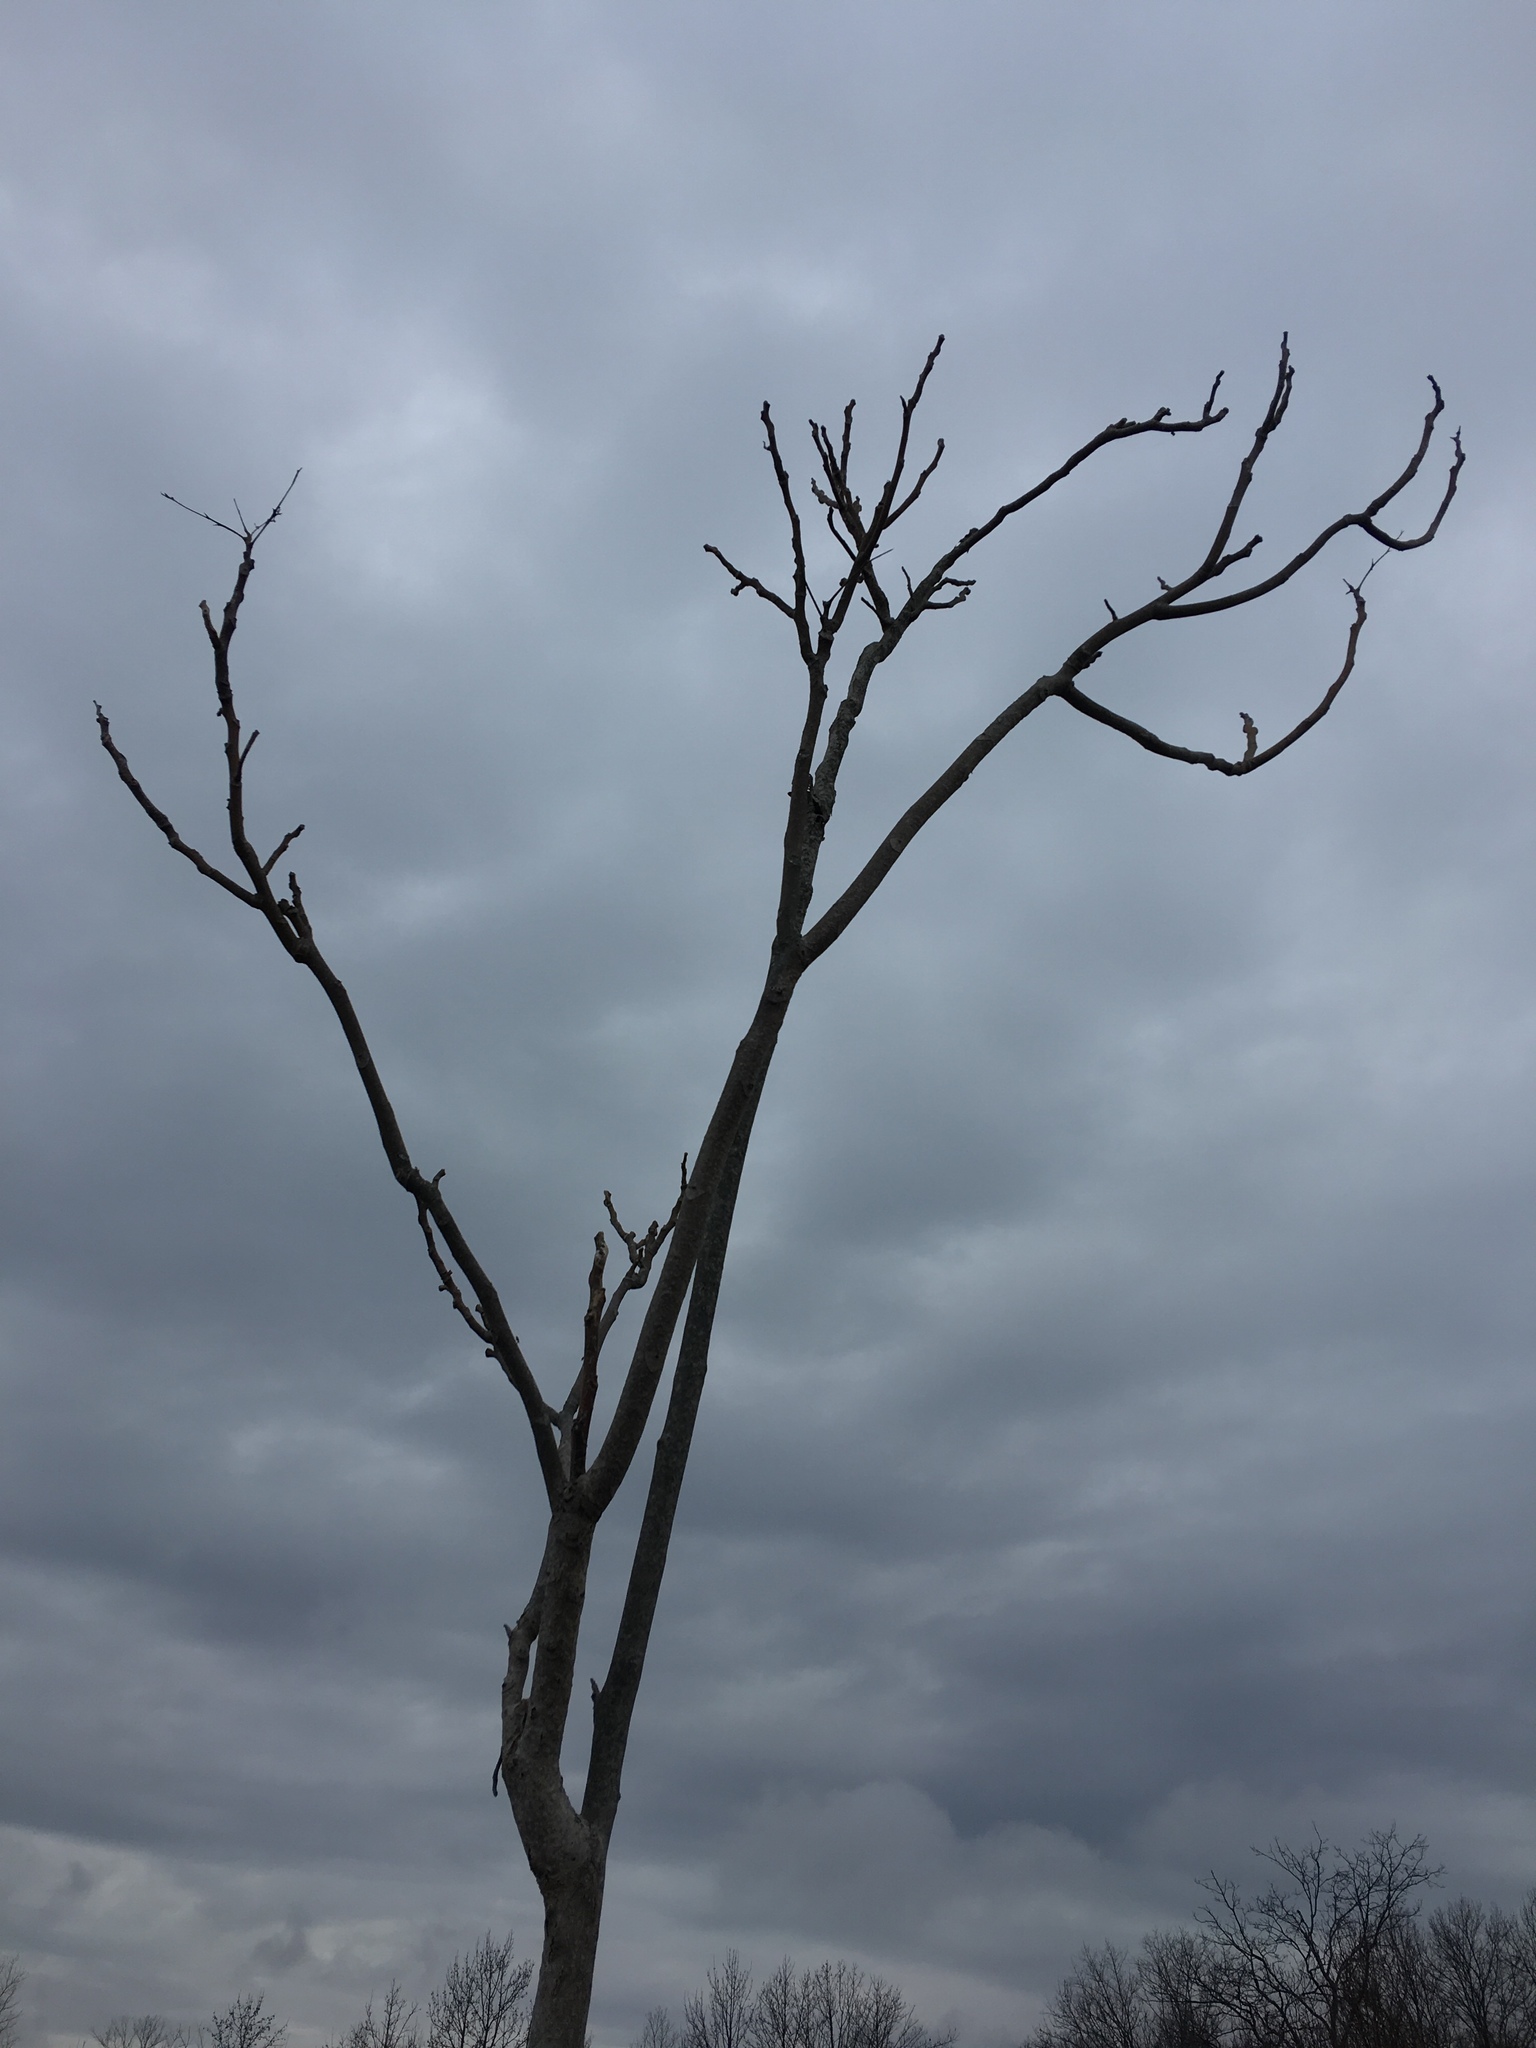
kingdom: Plantae
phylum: Tracheophyta
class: Magnoliopsida
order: Sapindales
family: Simaroubaceae
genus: Ailanthus
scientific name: Ailanthus altissima
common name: Tree-of-heaven
